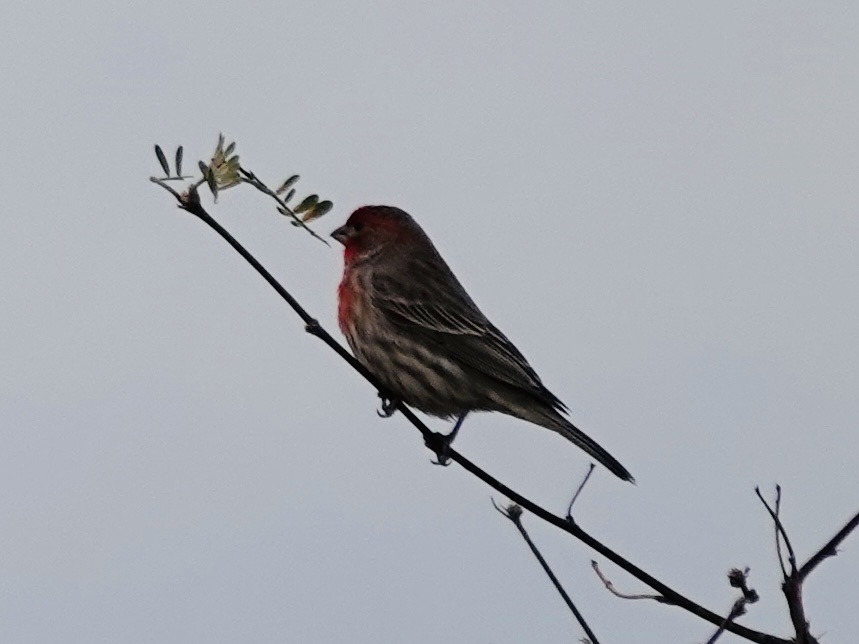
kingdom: Animalia
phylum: Chordata
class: Aves
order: Passeriformes
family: Fringillidae
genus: Haemorhous
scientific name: Haemorhous mexicanus
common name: House finch
